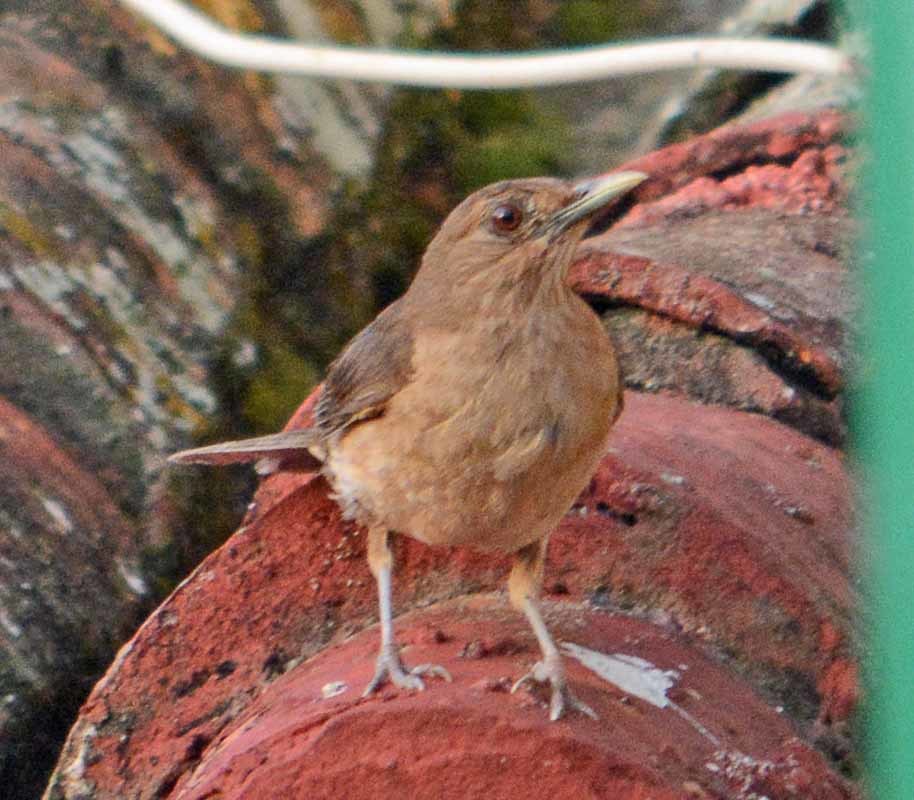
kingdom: Animalia
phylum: Chordata
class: Aves
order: Passeriformes
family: Turdidae
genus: Turdus
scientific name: Turdus grayi
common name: Clay-colored thrush
